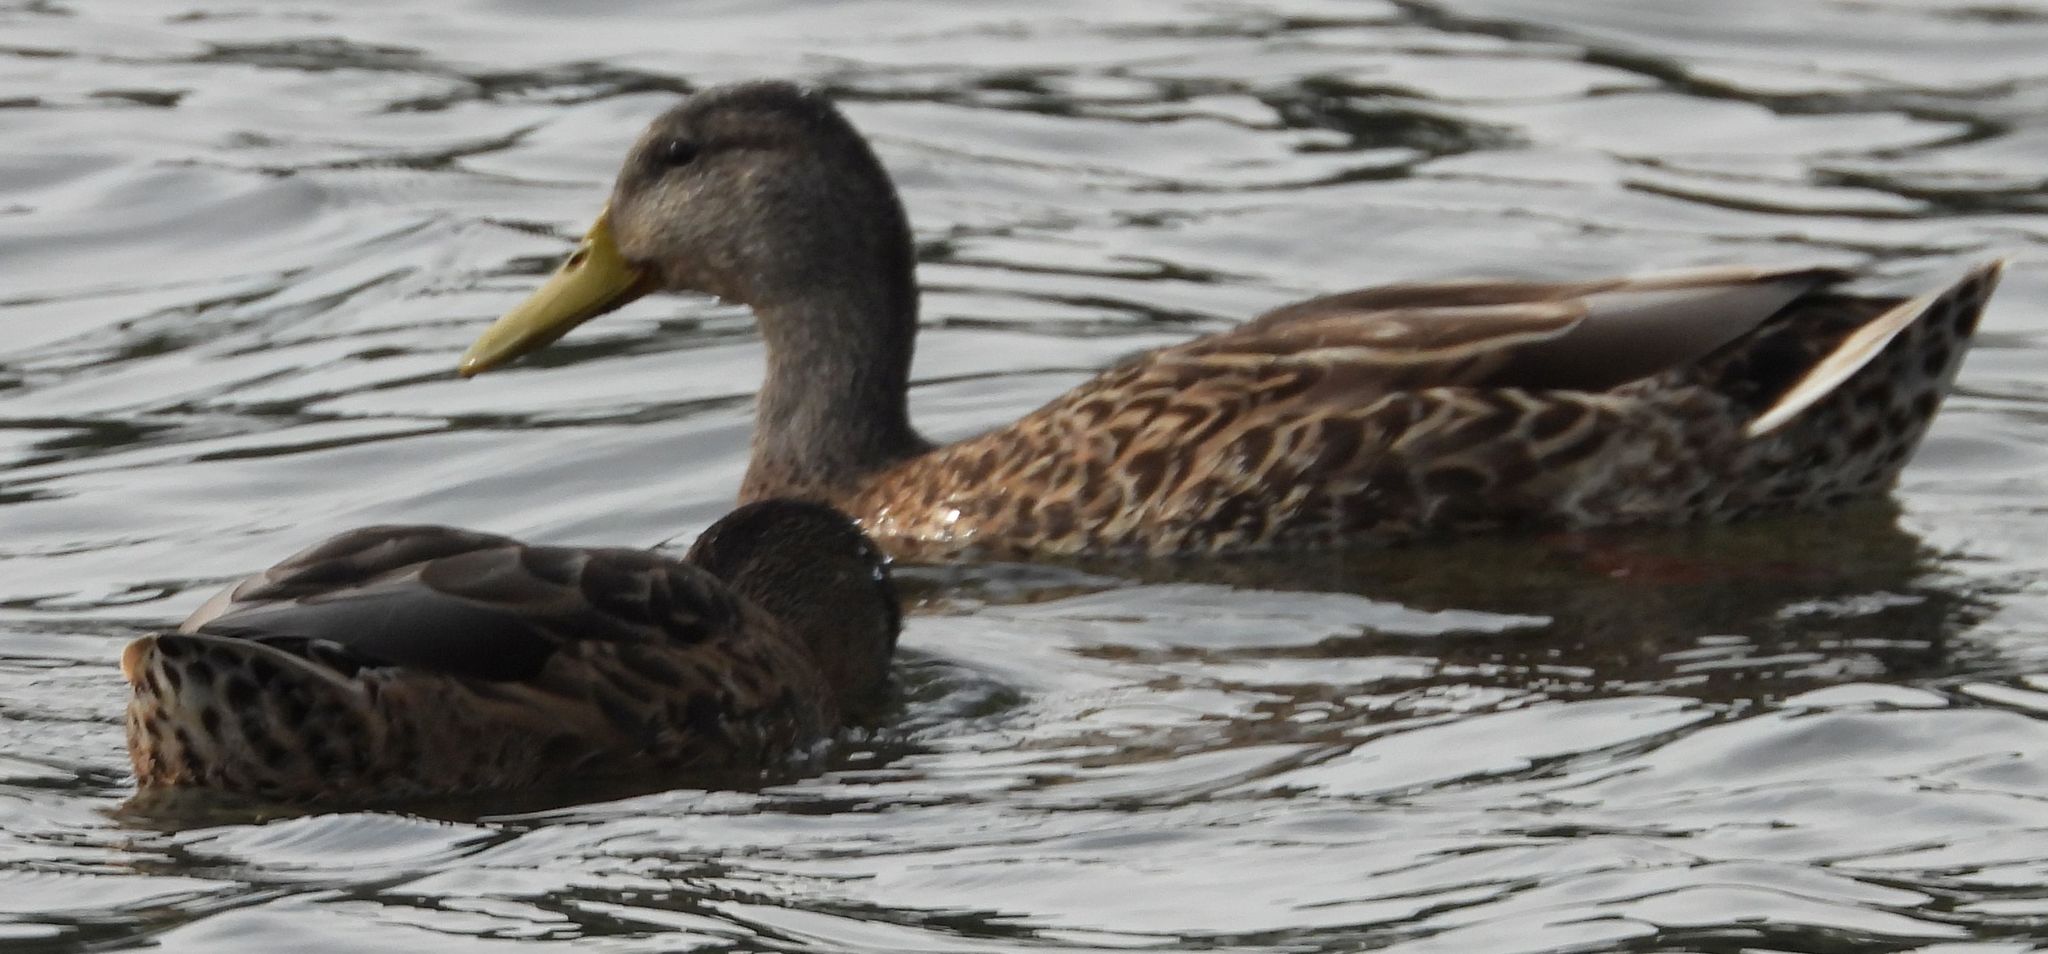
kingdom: Animalia
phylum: Chordata
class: Aves
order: Anseriformes
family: Anatidae
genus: Anas
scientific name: Anas platyrhynchos
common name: Mallard
